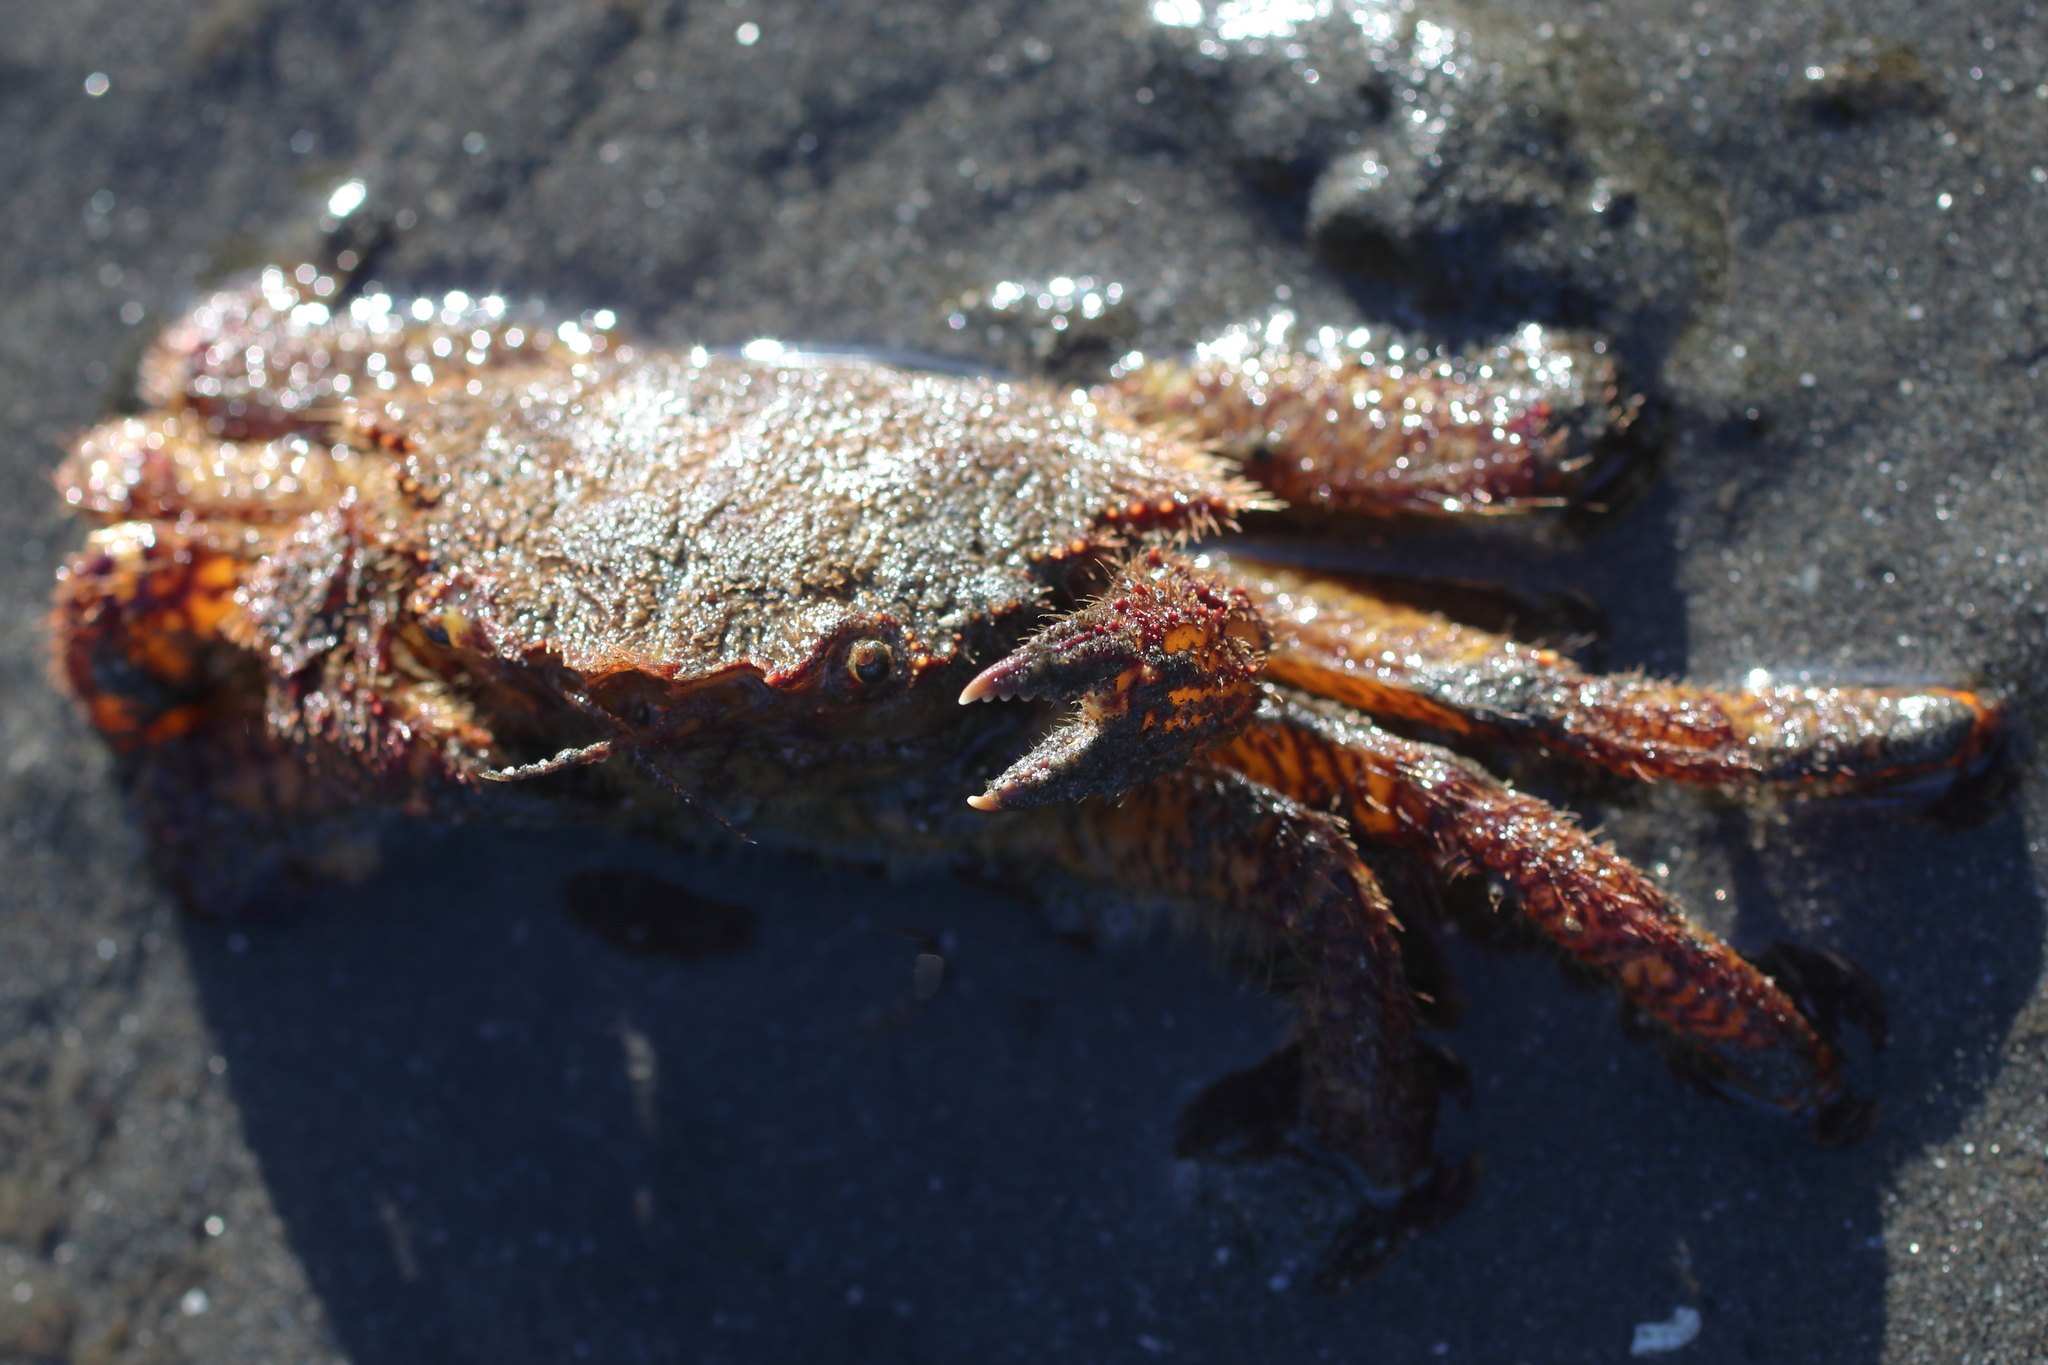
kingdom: Animalia
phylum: Arthropoda
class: Malacostraca
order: Decapoda
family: Cheiragonidae
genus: Telmessus
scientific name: Telmessus cheiragonus
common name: Helmet crab
